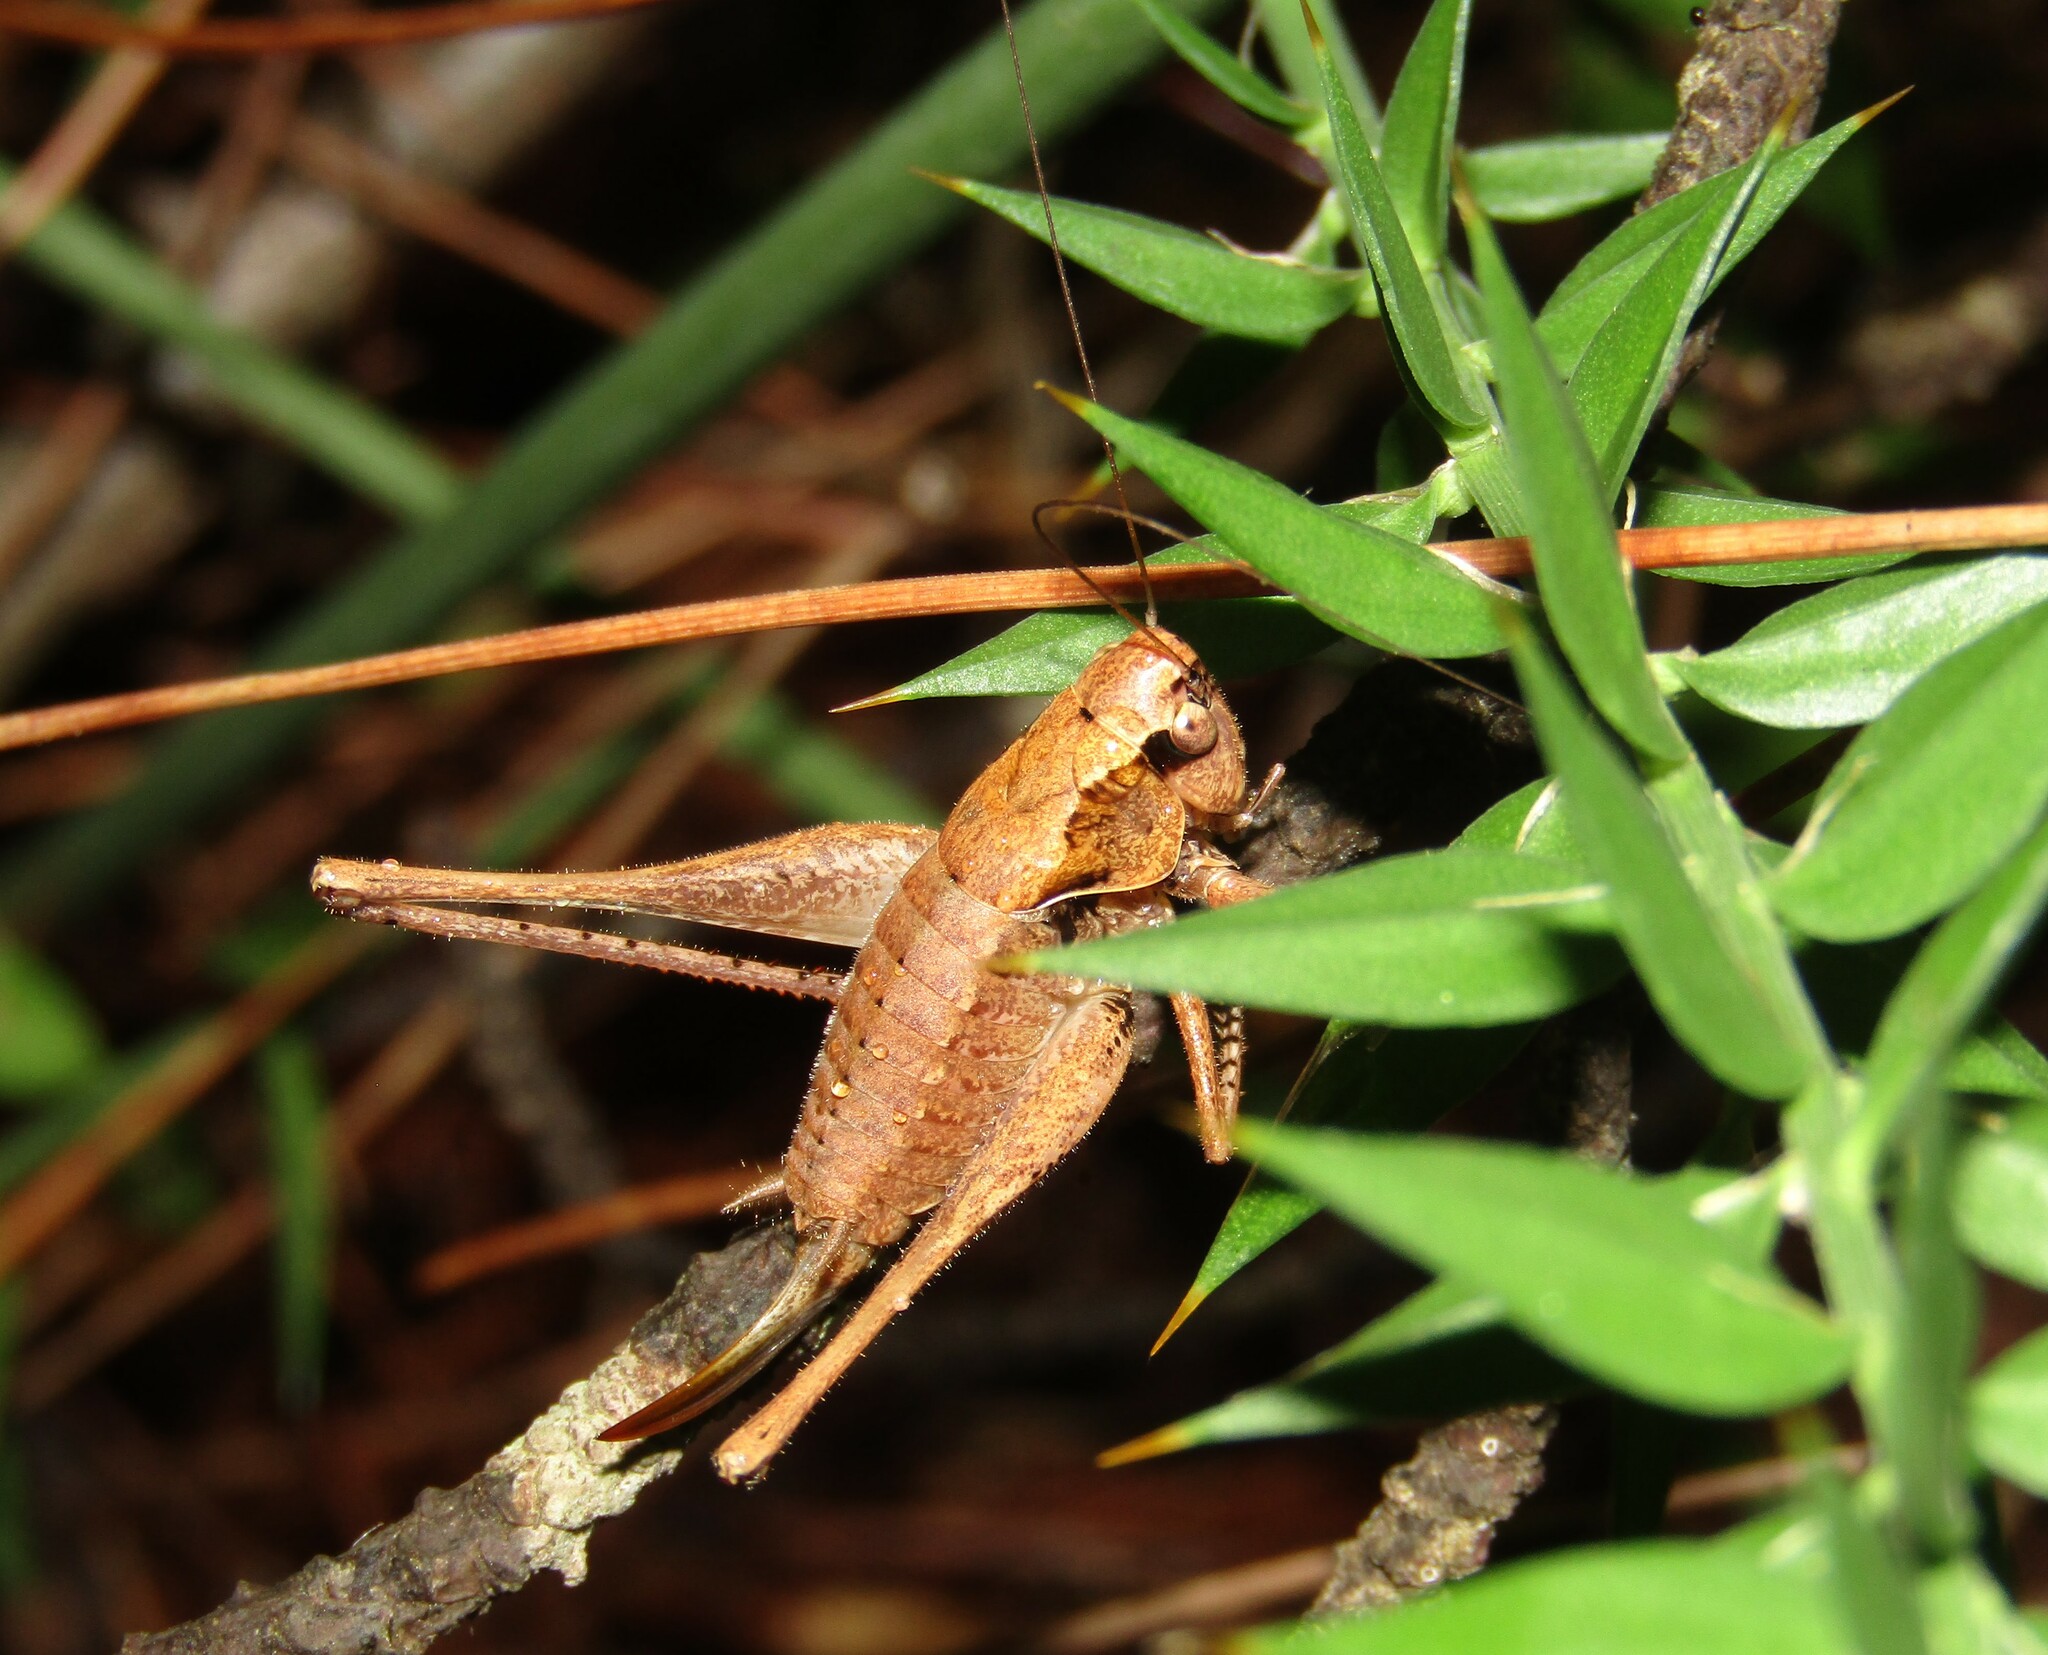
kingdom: Animalia
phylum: Arthropoda
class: Insecta
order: Orthoptera
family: Tettigoniidae
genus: Pholidoptera
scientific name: Pholidoptera griseoaptera
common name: Dark bush-cricket
